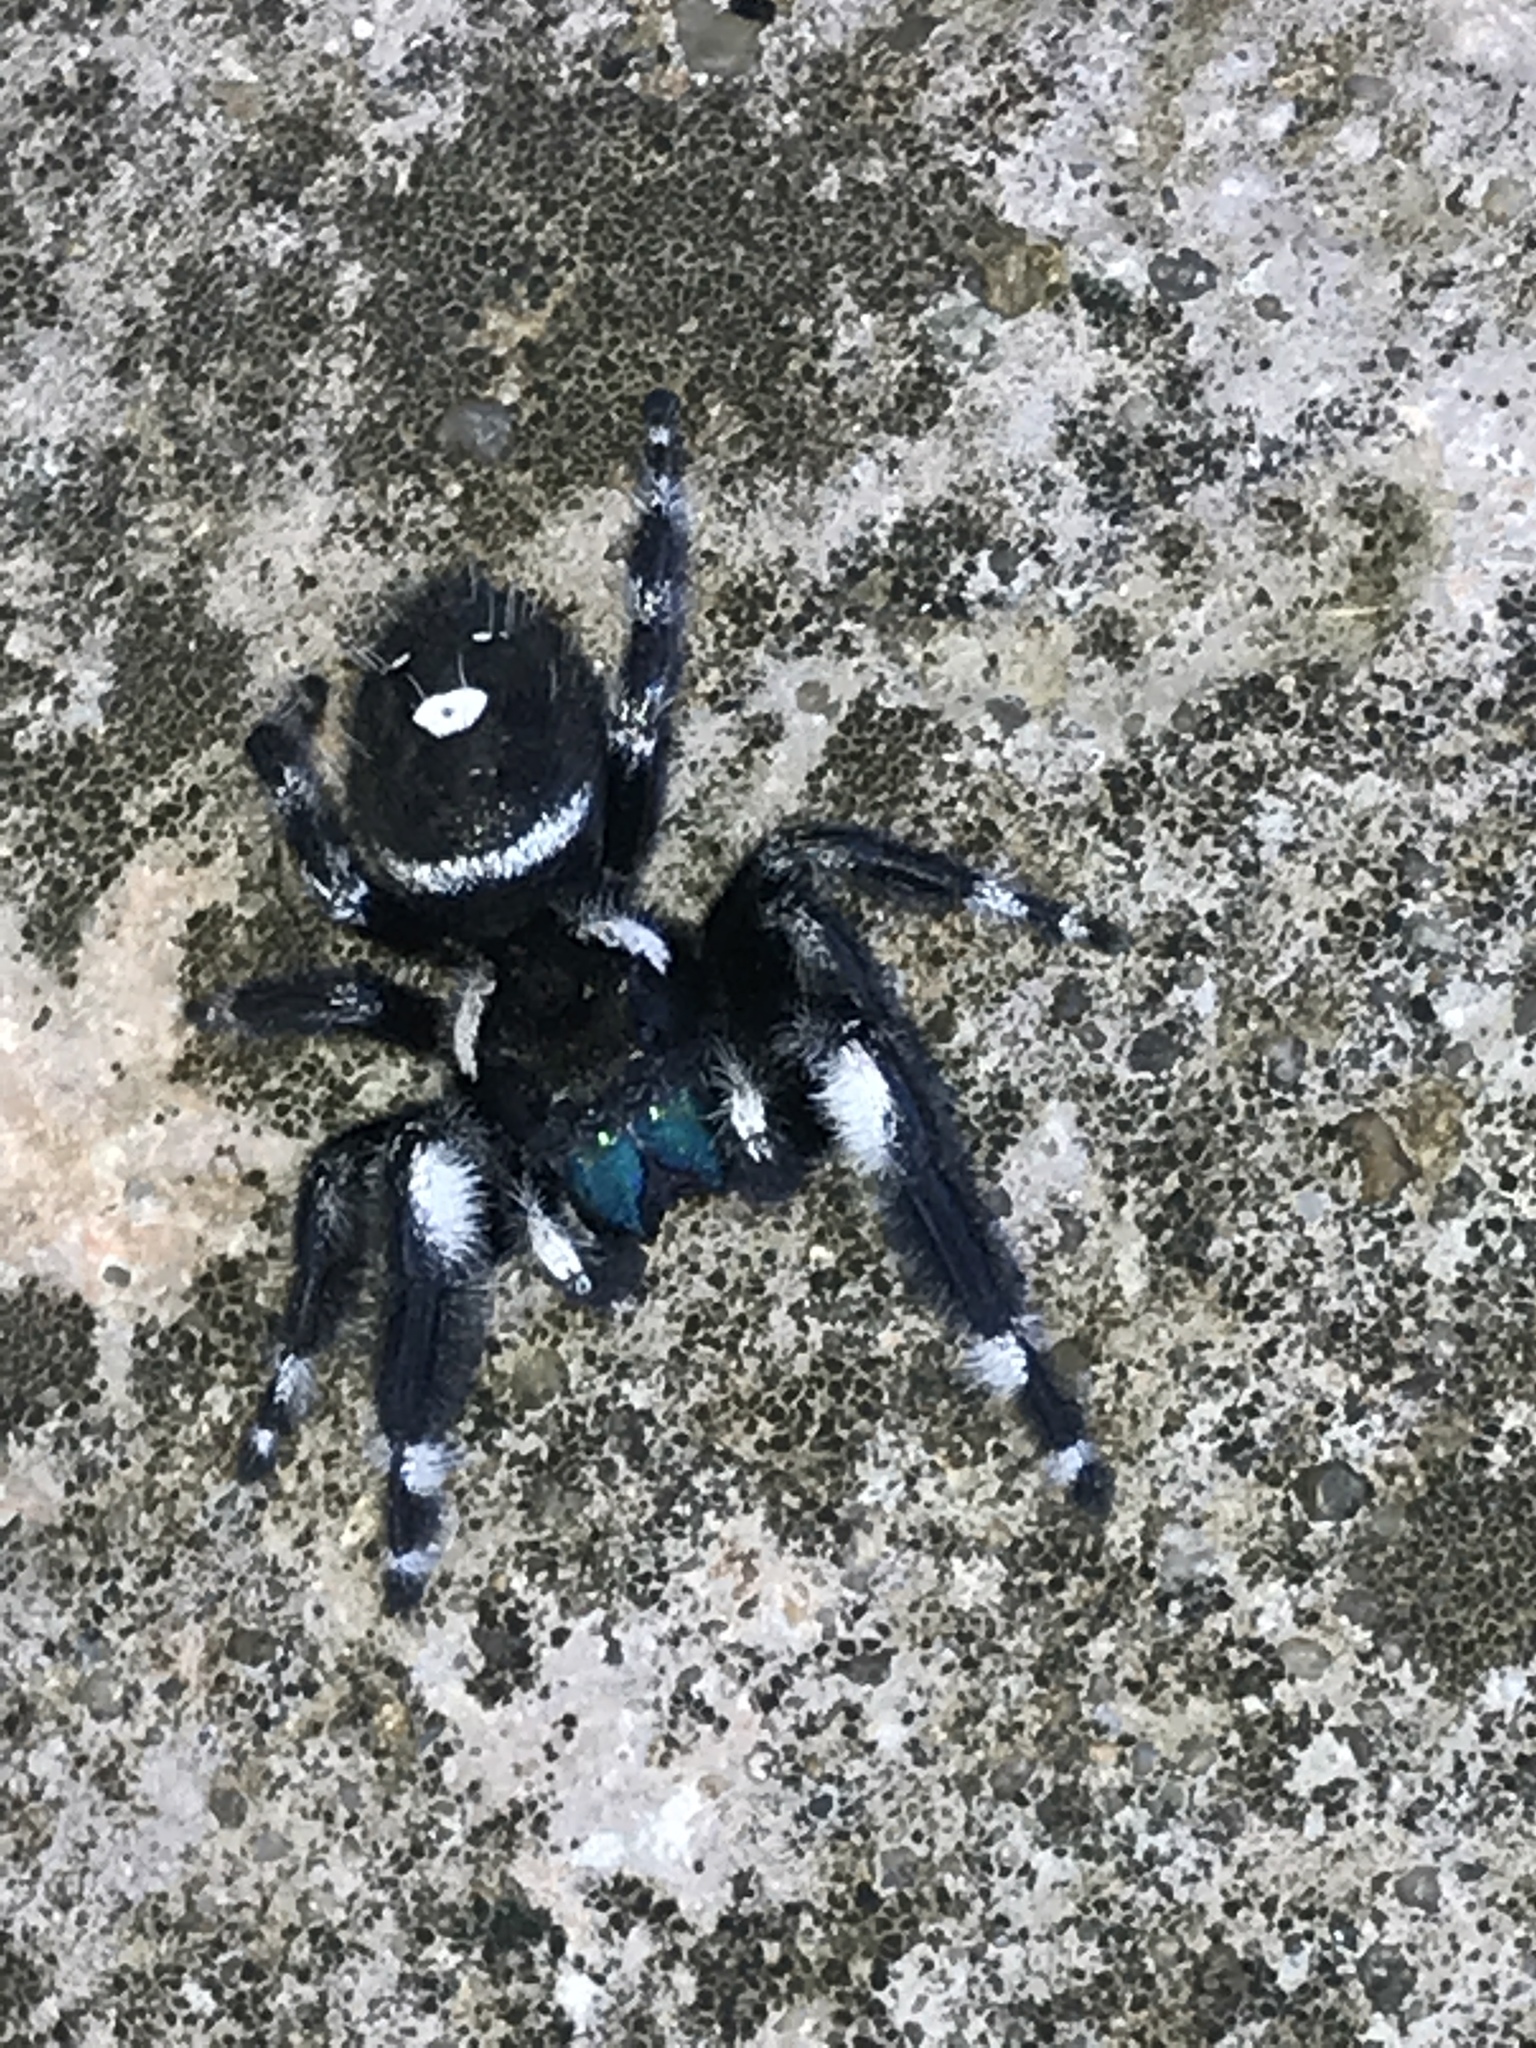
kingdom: Animalia
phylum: Arthropoda
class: Arachnida
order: Araneae
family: Salticidae
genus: Phidippus
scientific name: Phidippus audax
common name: Bold jumper
